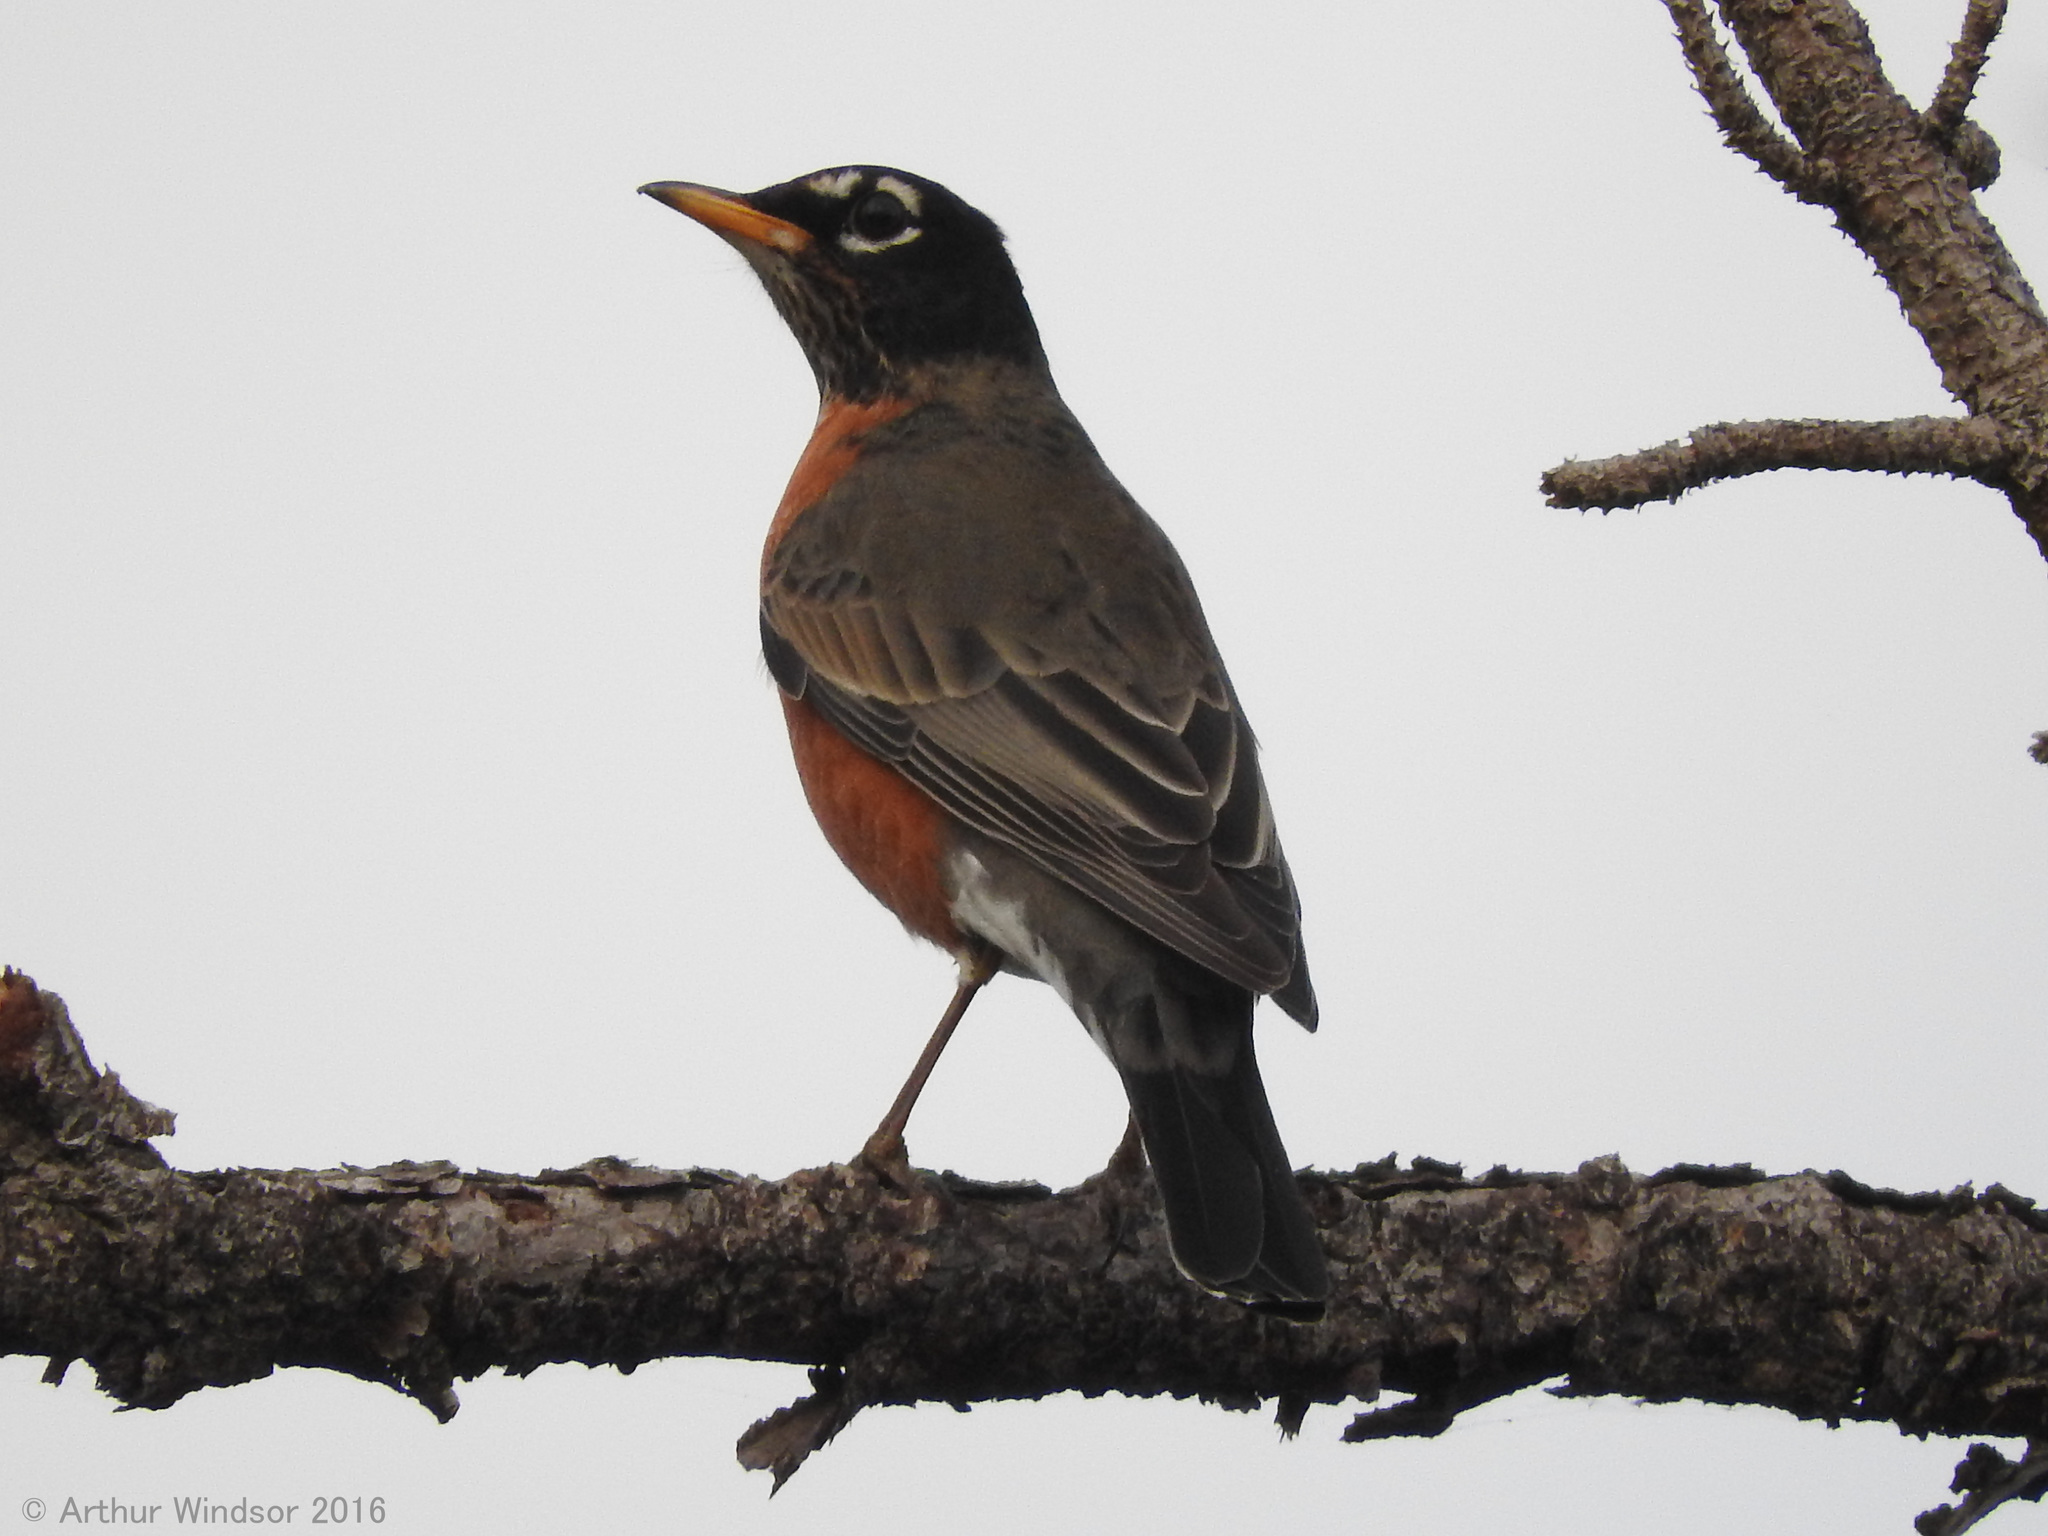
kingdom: Animalia
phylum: Chordata
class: Aves
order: Passeriformes
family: Turdidae
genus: Turdus
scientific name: Turdus migratorius
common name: American robin
